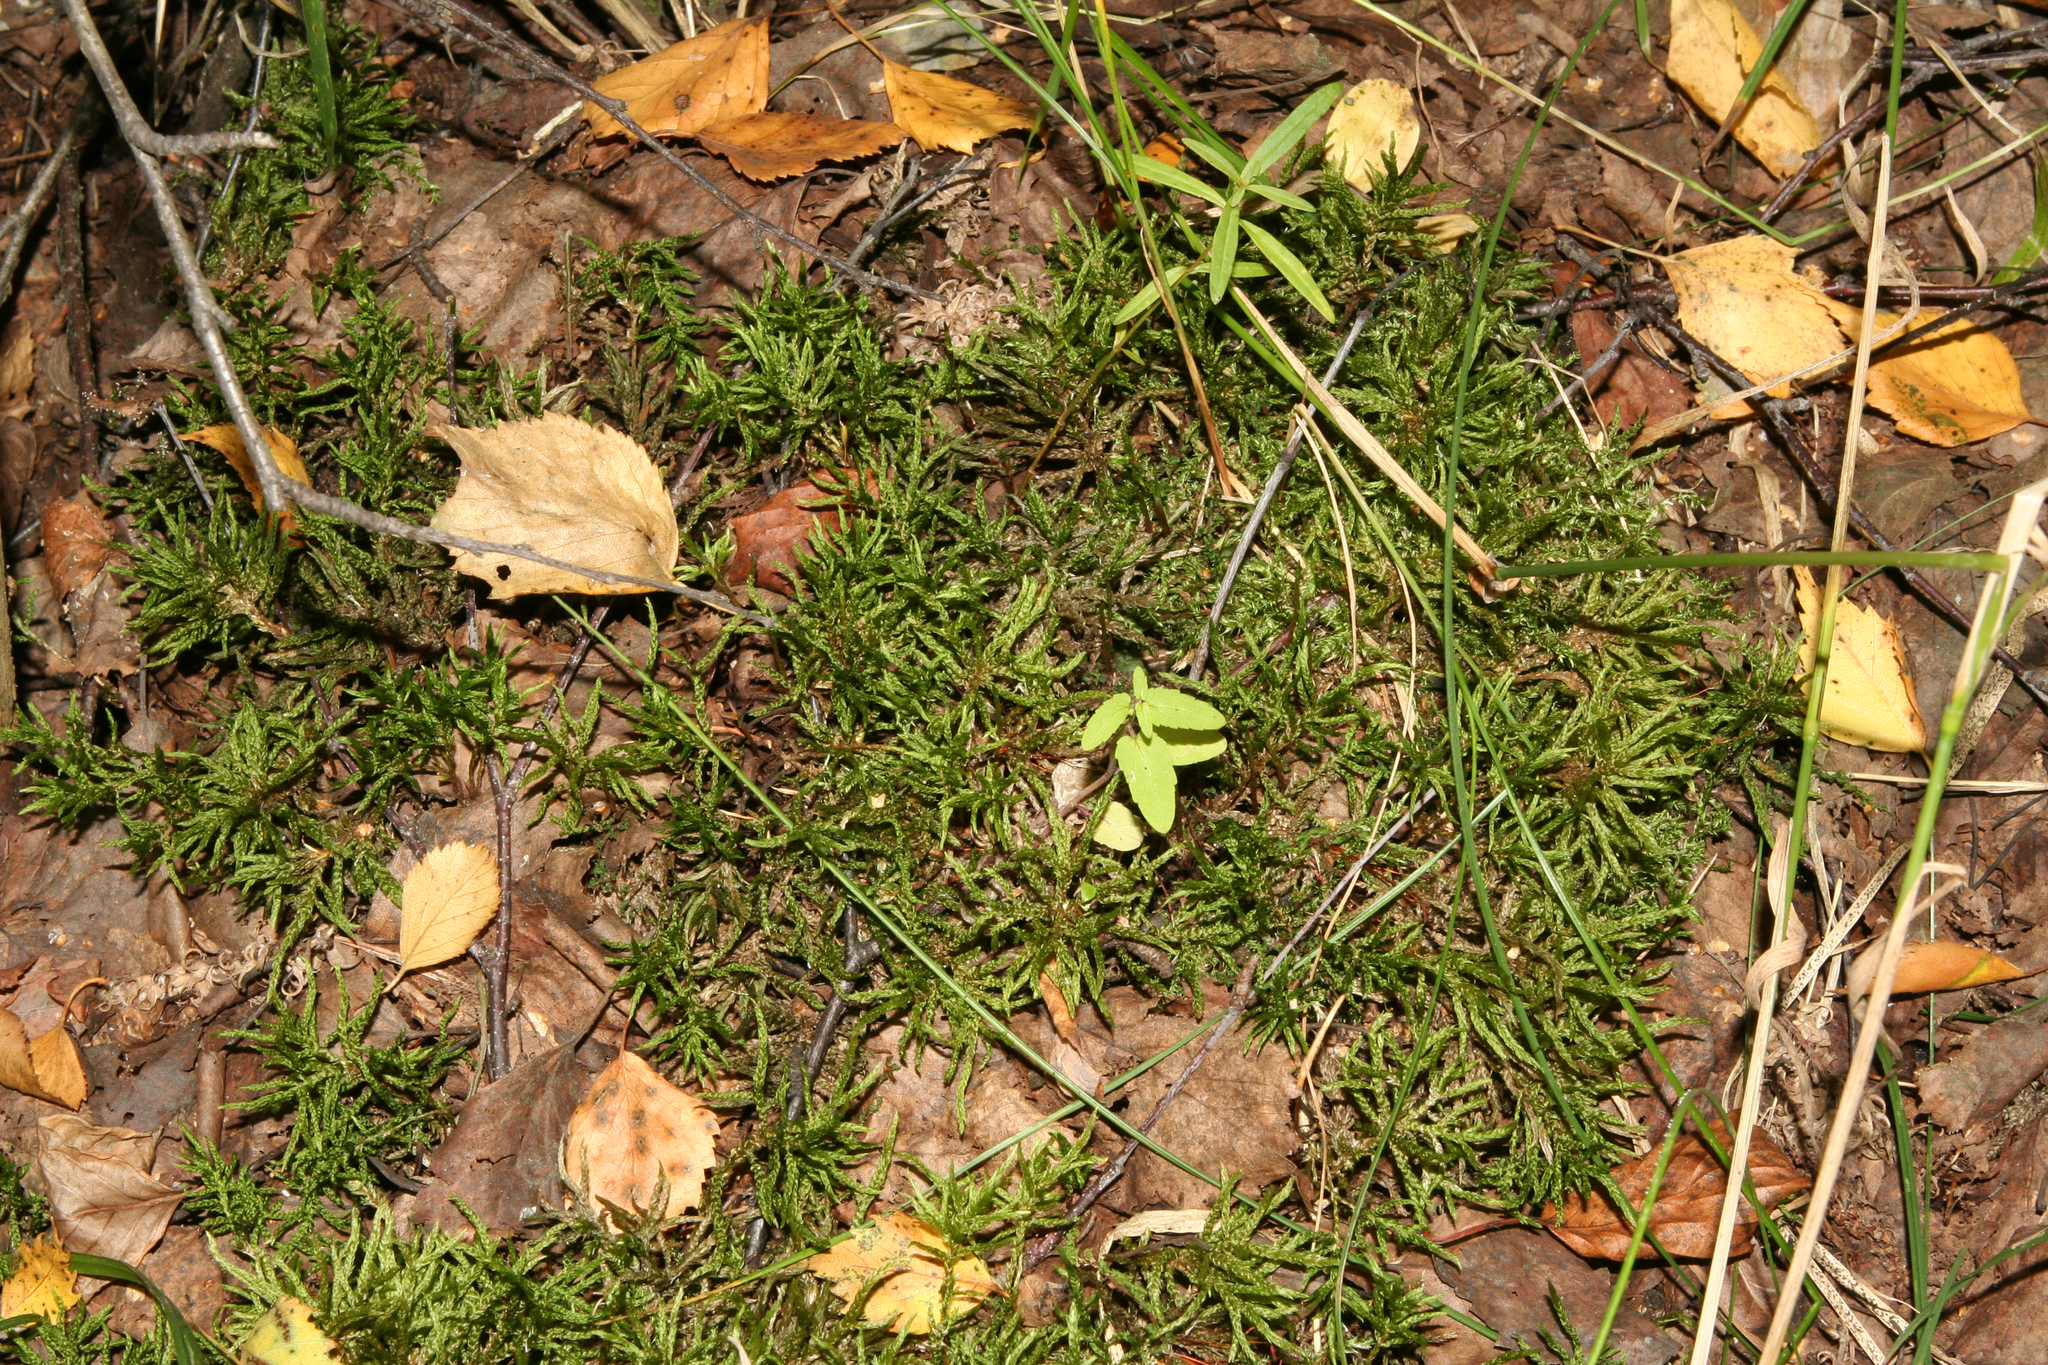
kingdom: Plantae
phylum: Bryophyta
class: Bryopsida
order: Hypnales
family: Climaciaceae
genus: Climacium
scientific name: Climacium dendroides
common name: Northern tree moss
